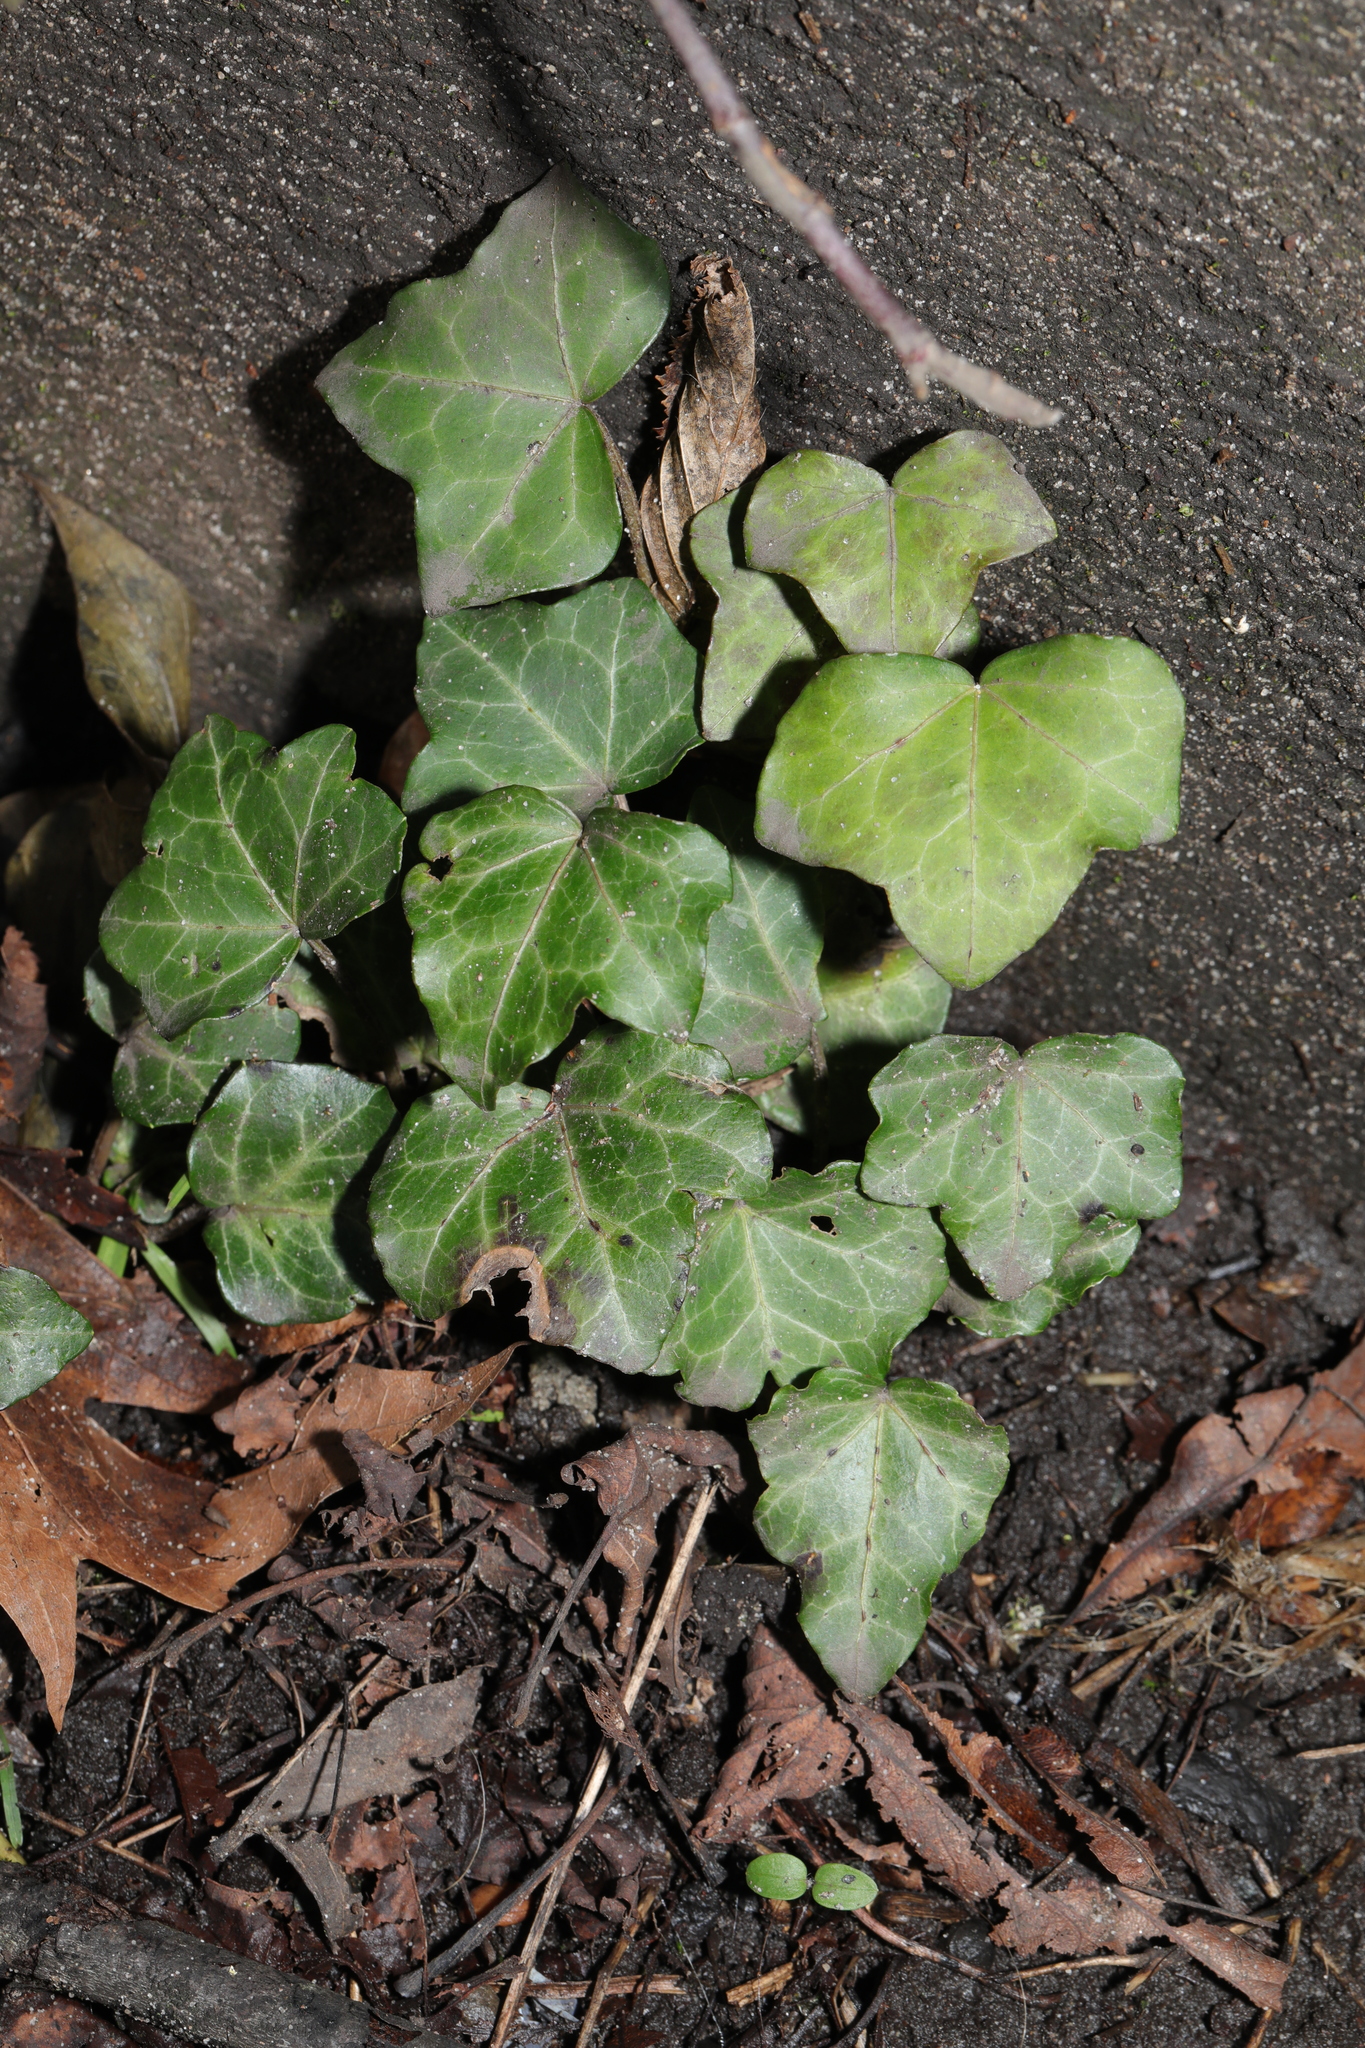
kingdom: Plantae
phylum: Tracheophyta
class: Magnoliopsida
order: Apiales
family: Araliaceae
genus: Hedera
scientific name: Hedera helix
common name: Ivy
